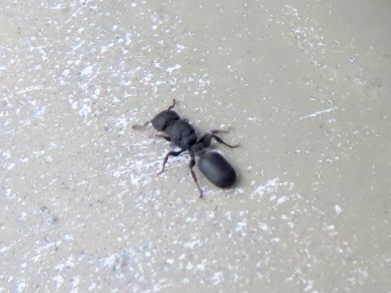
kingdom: Animalia
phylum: Arthropoda
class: Insecta
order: Hymenoptera
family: Formicidae
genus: Cataulacus
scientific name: Cataulacus granulatus
